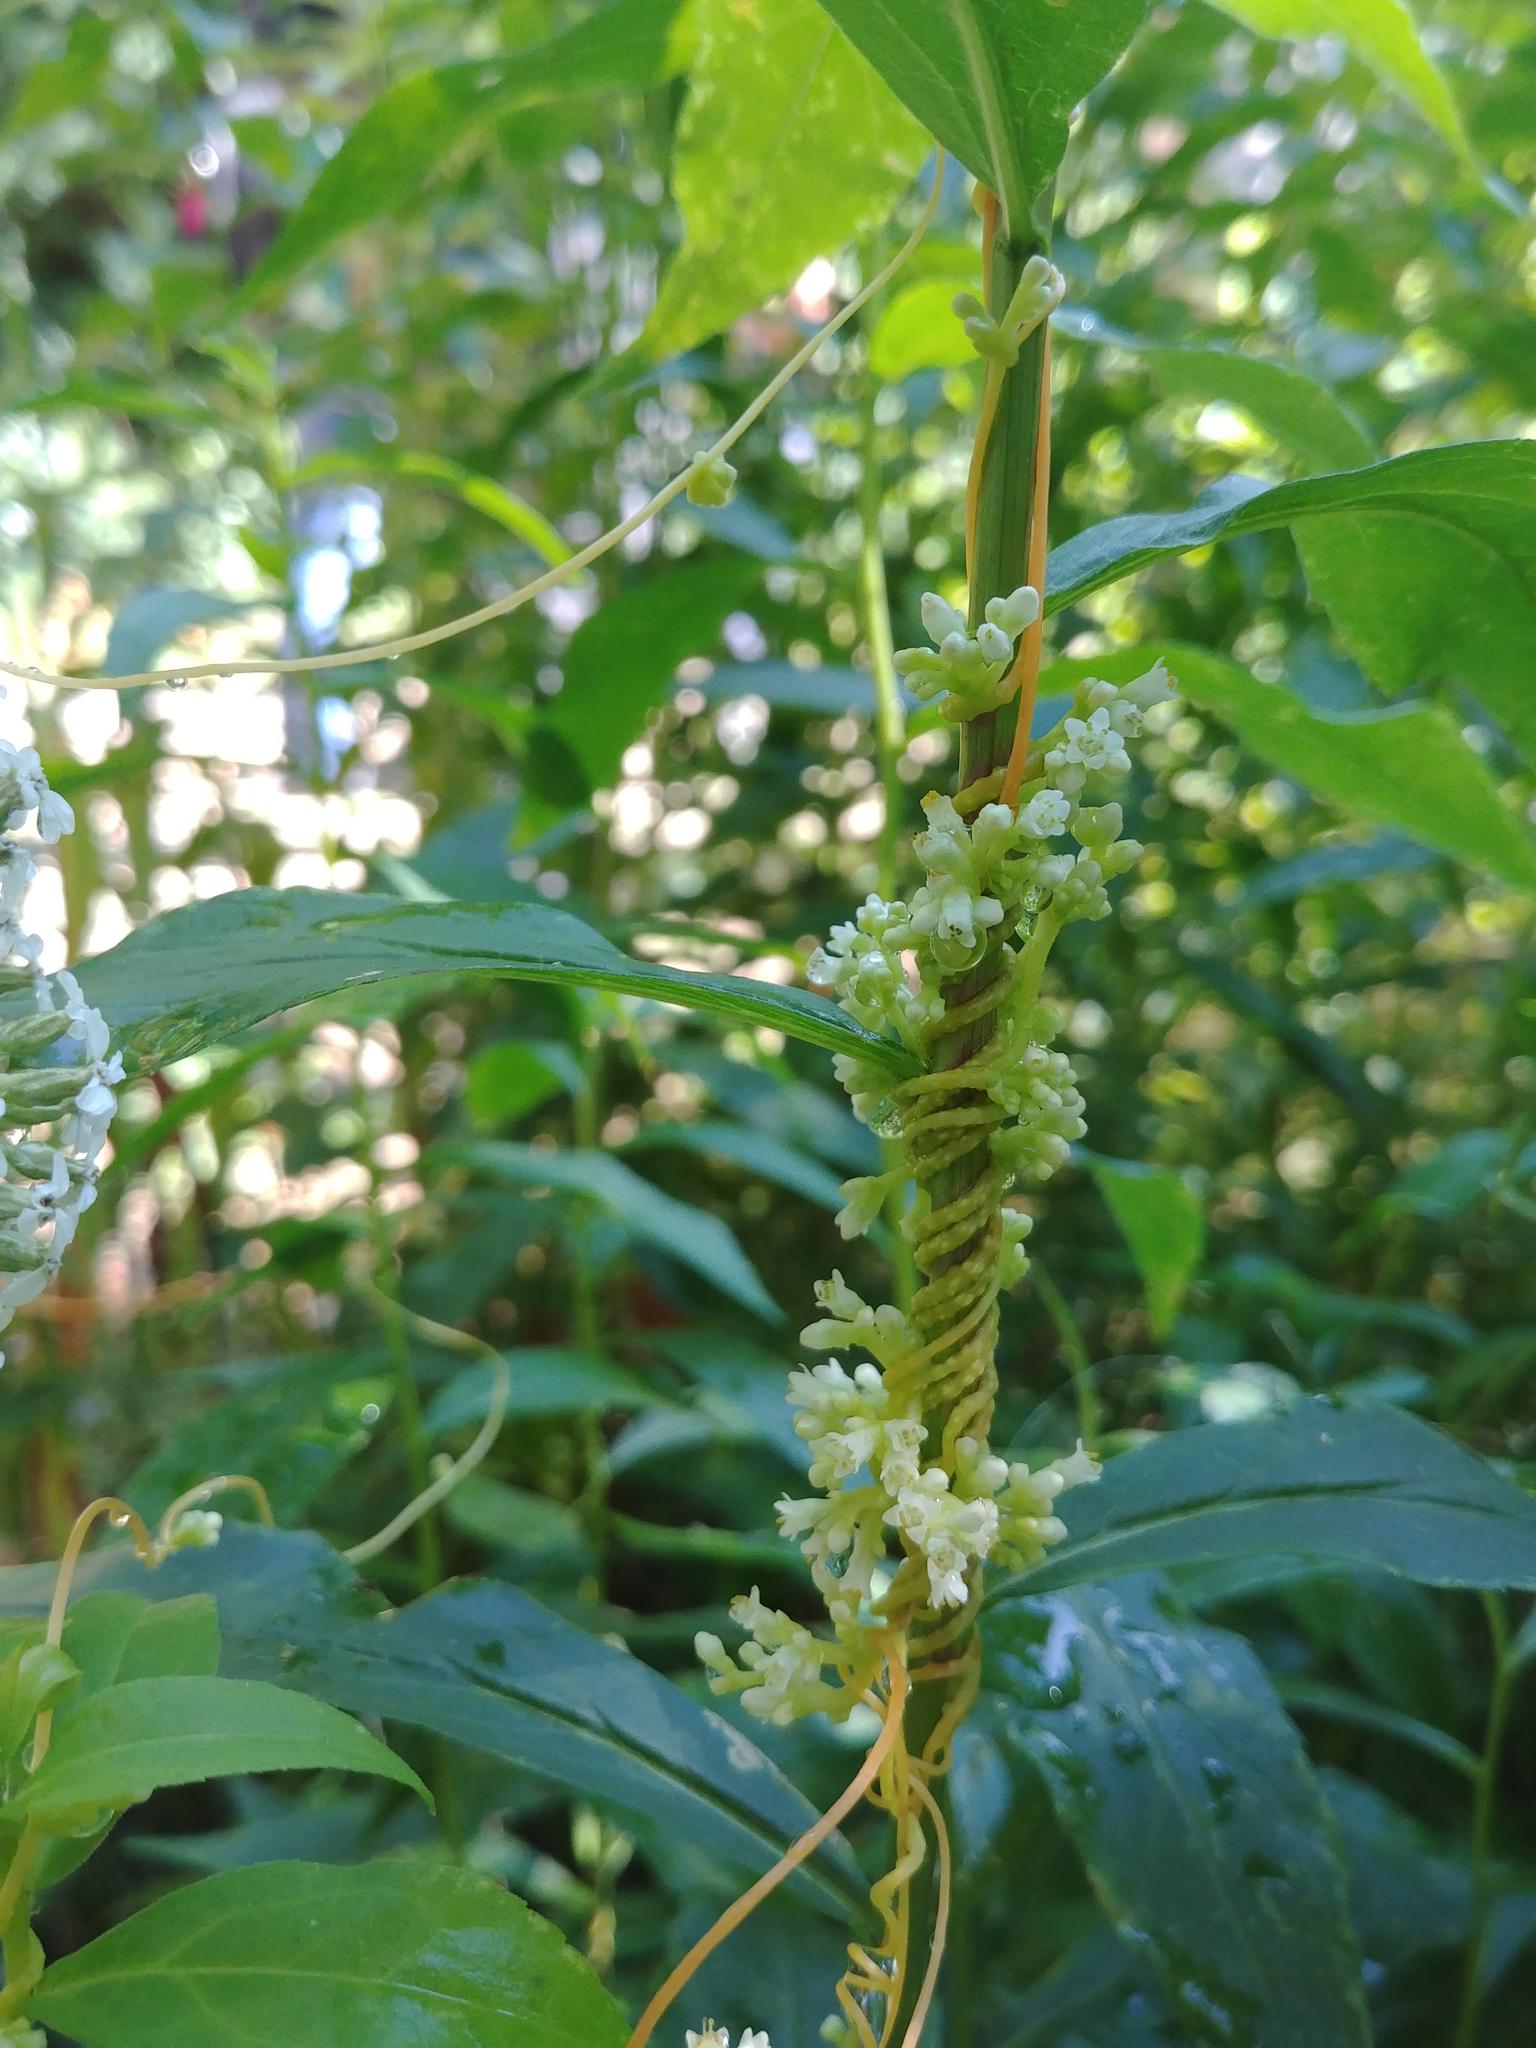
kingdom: Plantae
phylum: Tracheophyta
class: Magnoliopsida
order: Solanales
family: Convolvulaceae
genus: Cuscuta
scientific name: Cuscuta gronovii
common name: Common dodder
